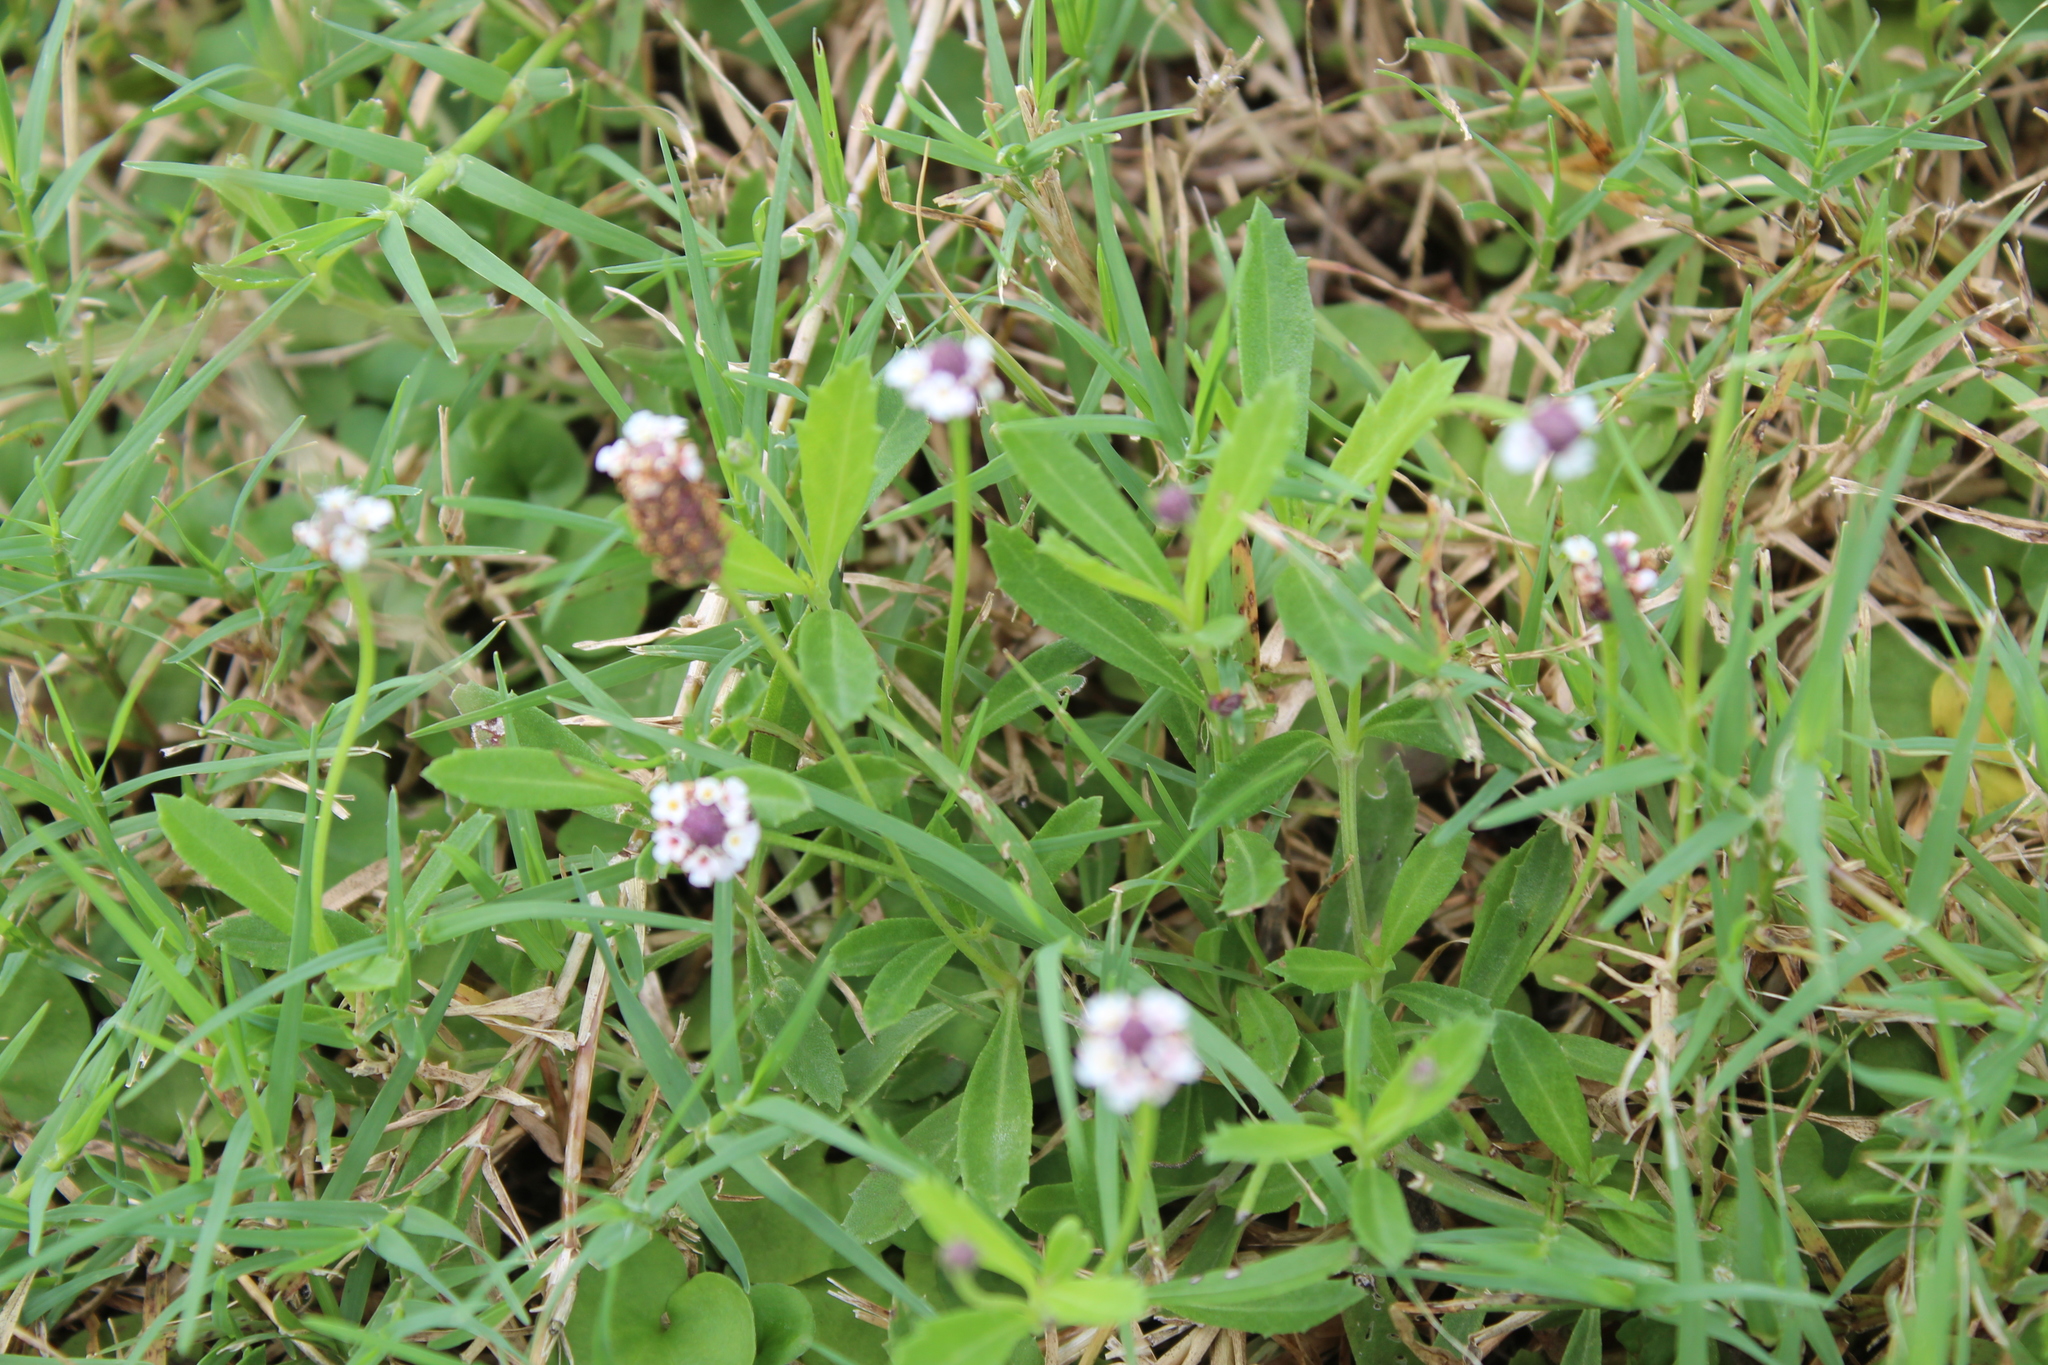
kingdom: Plantae
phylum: Tracheophyta
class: Magnoliopsida
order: Lamiales
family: Verbenaceae
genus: Phyla
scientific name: Phyla nodiflora
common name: Frogfruit
